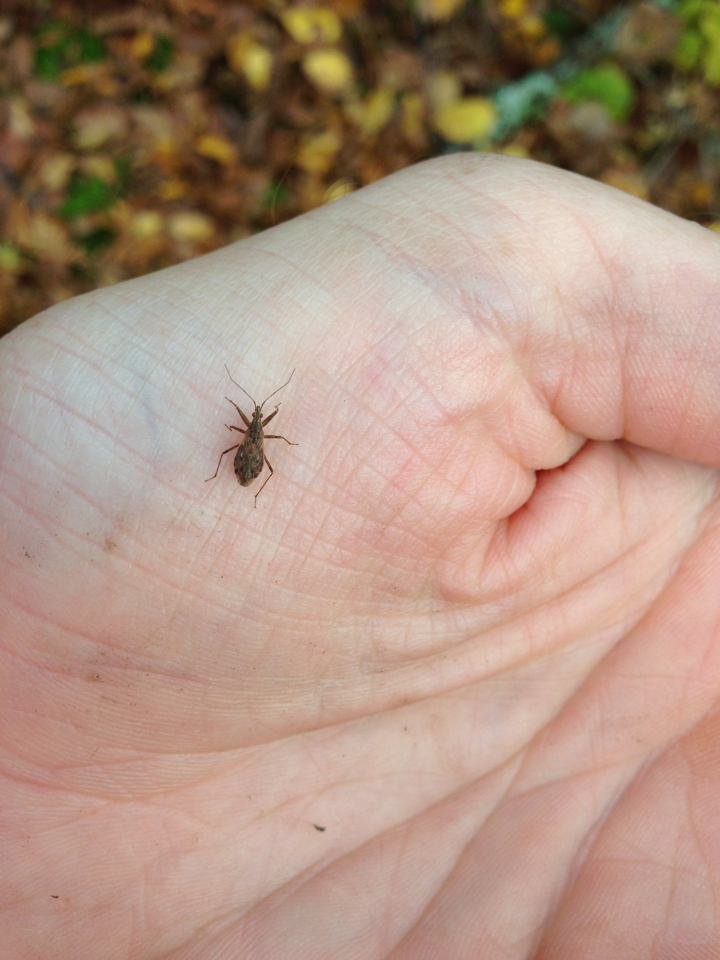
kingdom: Animalia
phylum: Arthropoda
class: Insecta
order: Hemiptera
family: Nabidae
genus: Nabis
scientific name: Nabis
